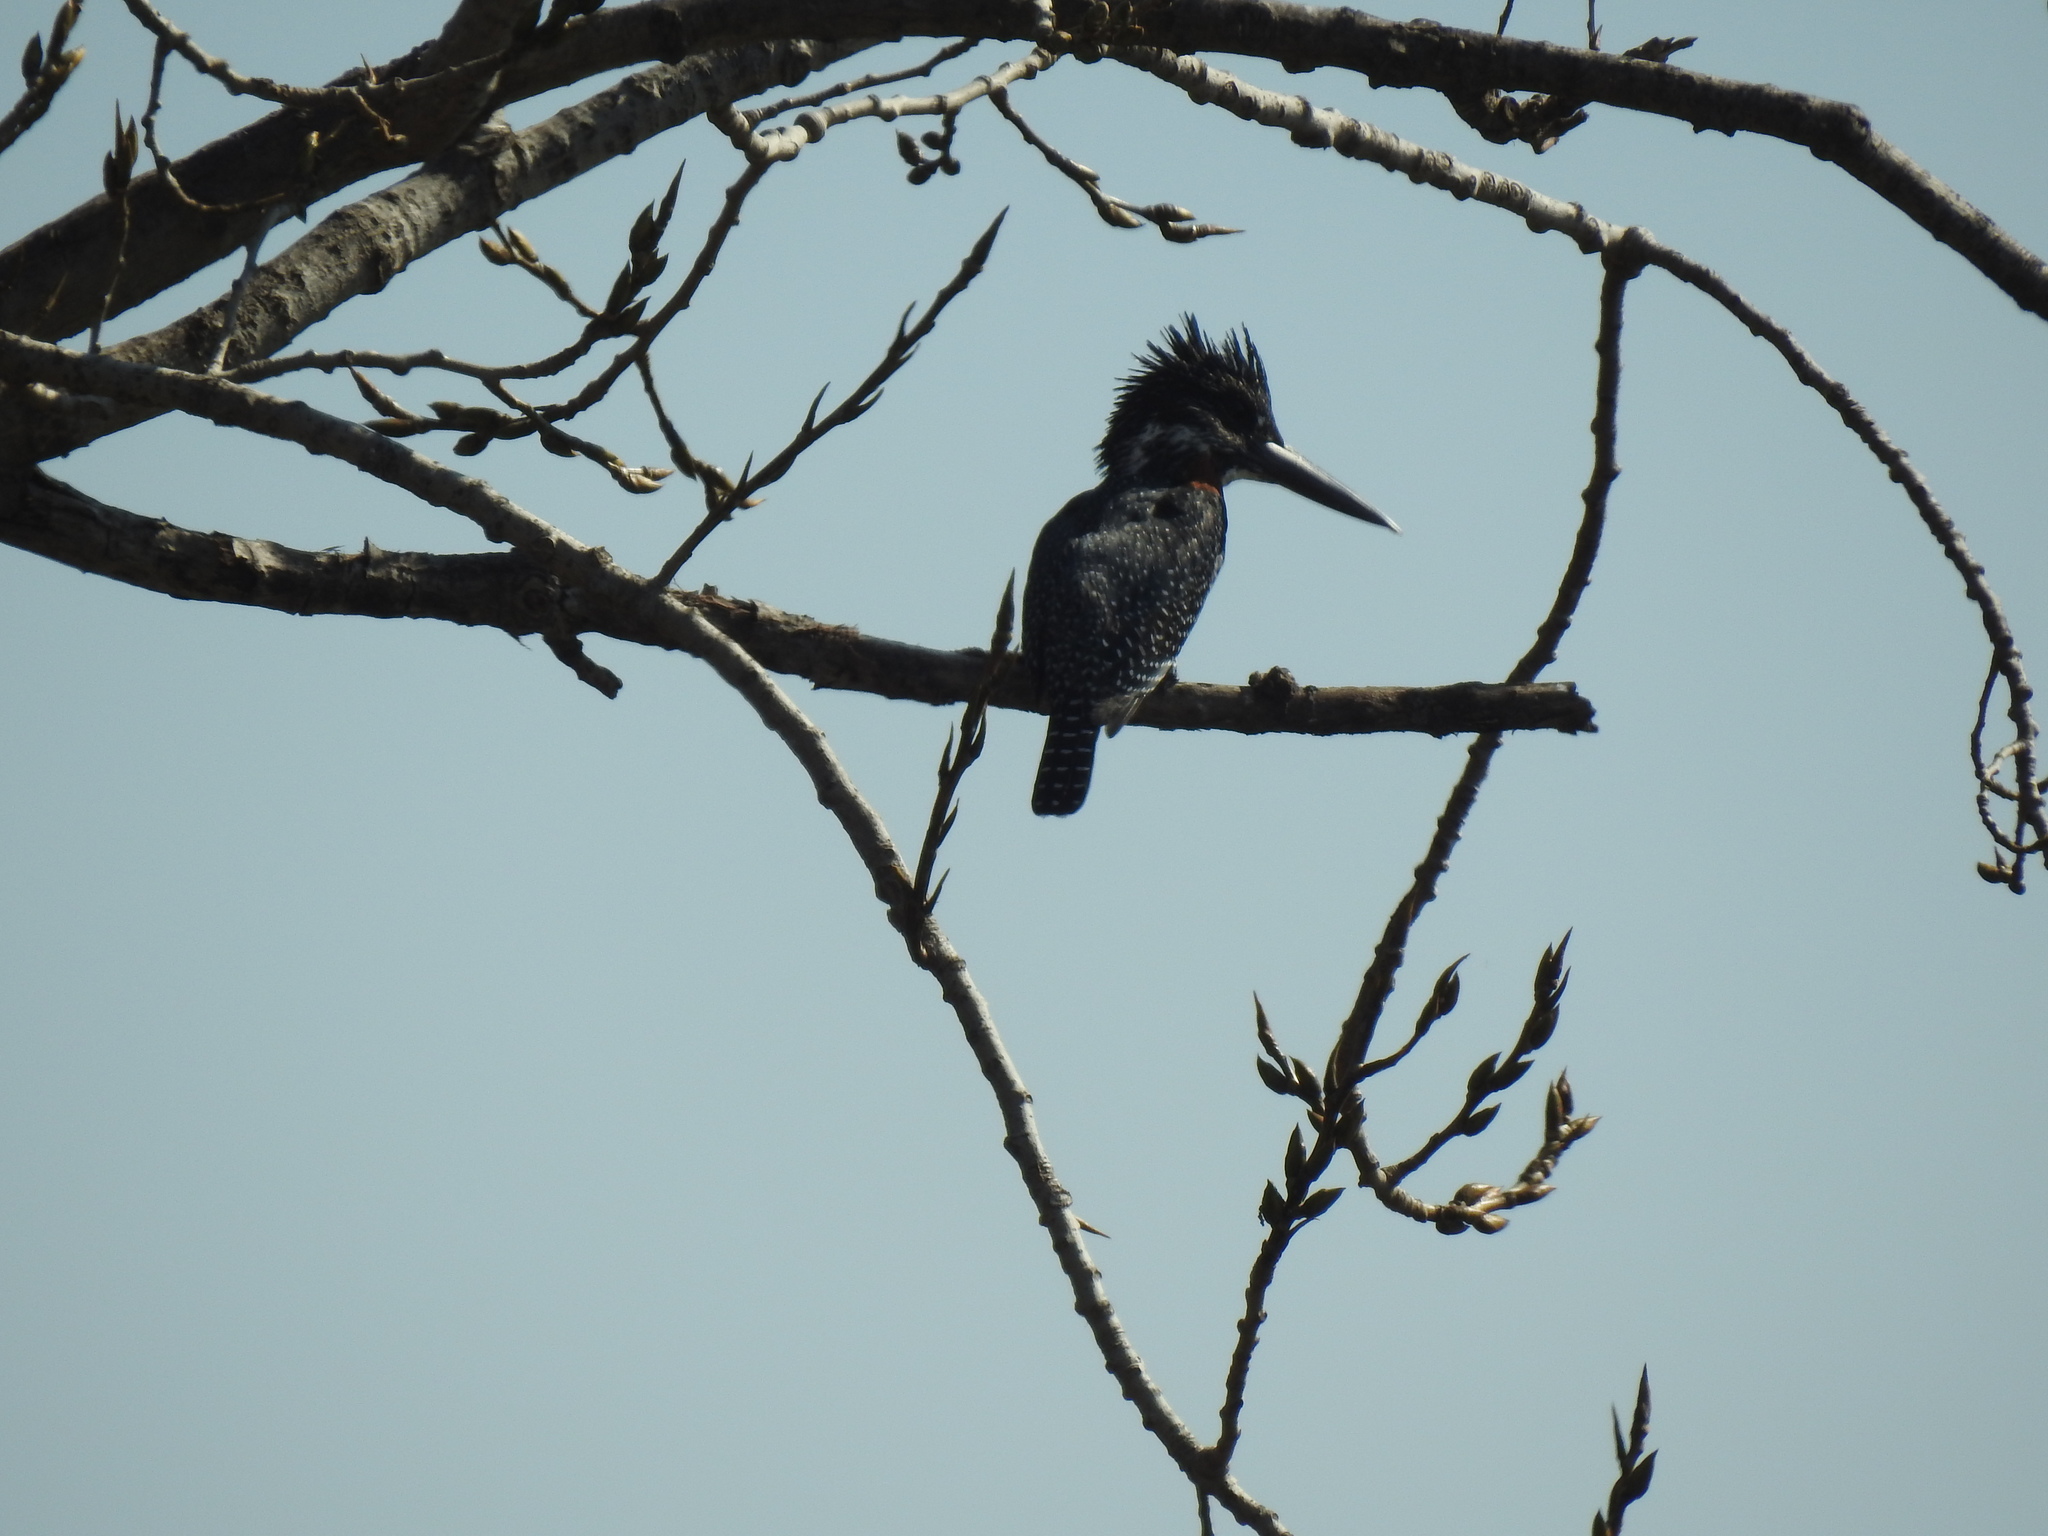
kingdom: Animalia
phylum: Chordata
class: Aves
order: Coraciiformes
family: Alcedinidae
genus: Megaceryle
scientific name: Megaceryle maxima
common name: Giant kingfisher
